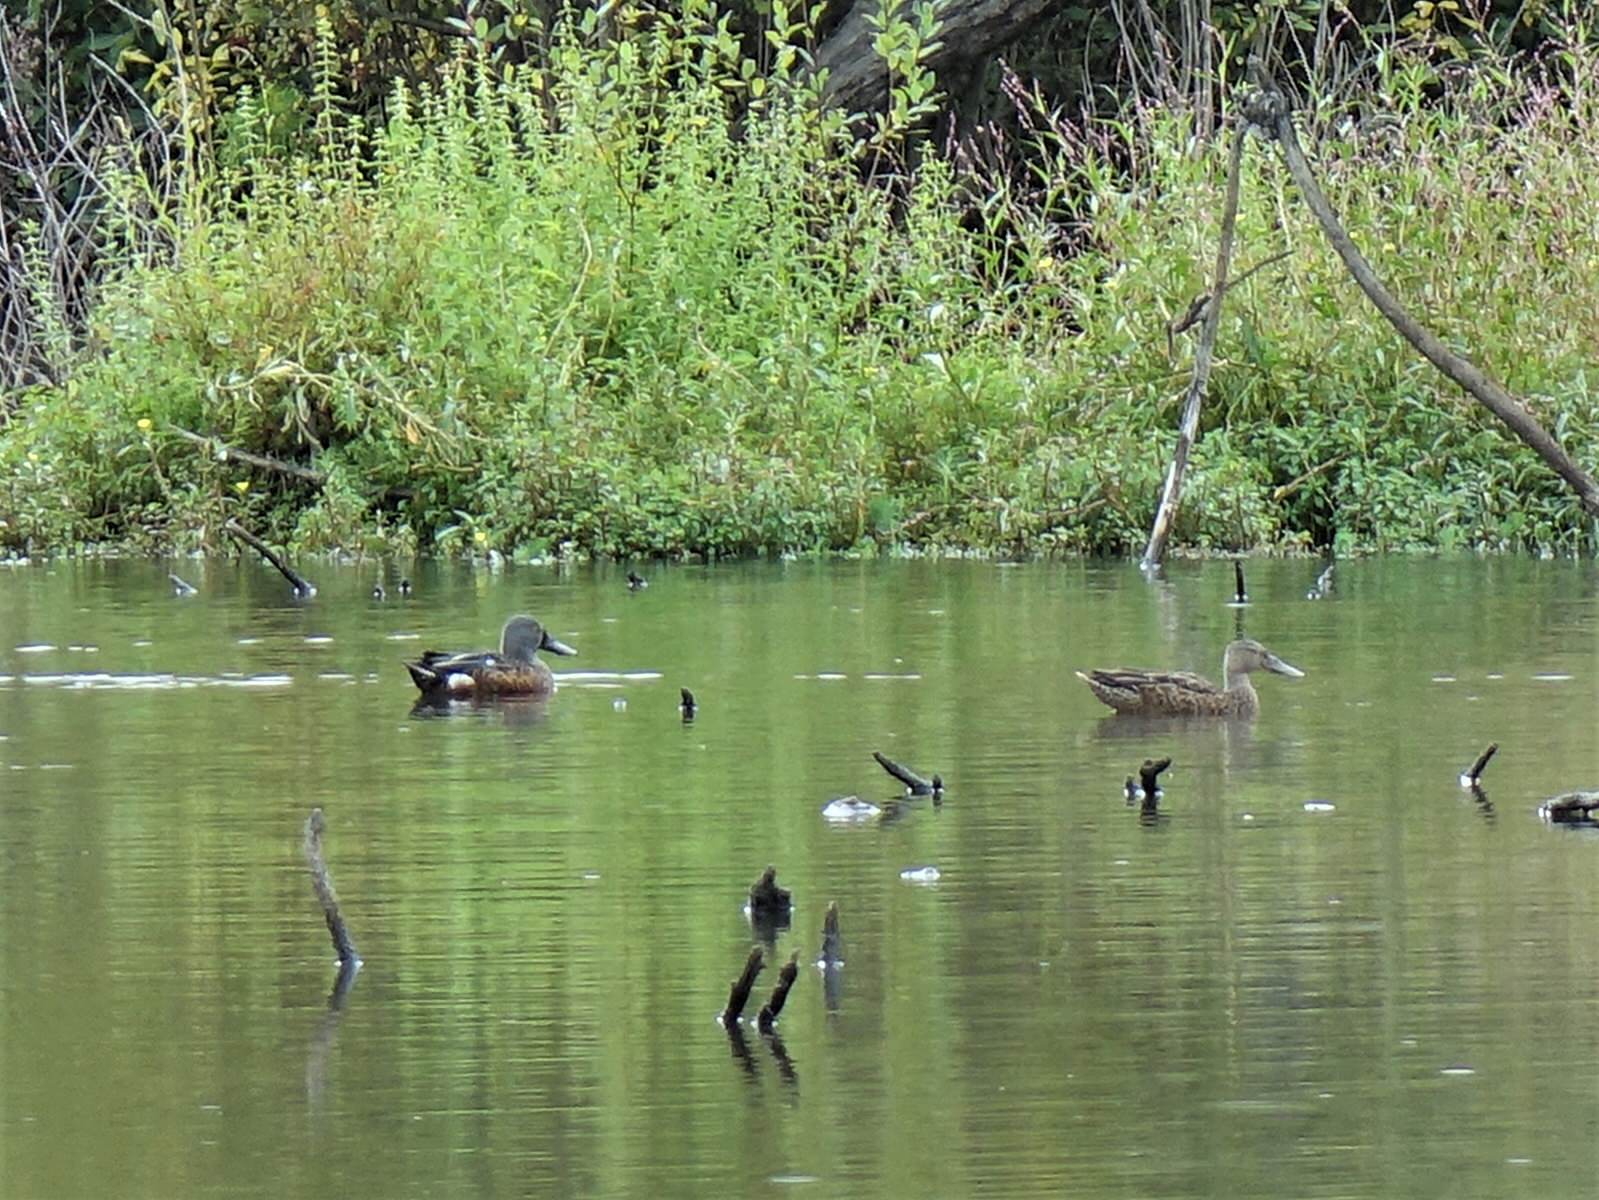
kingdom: Animalia
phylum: Chordata
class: Aves
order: Anseriformes
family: Anatidae
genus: Spatula
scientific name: Spatula rhynchotis
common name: Australian shoveler
